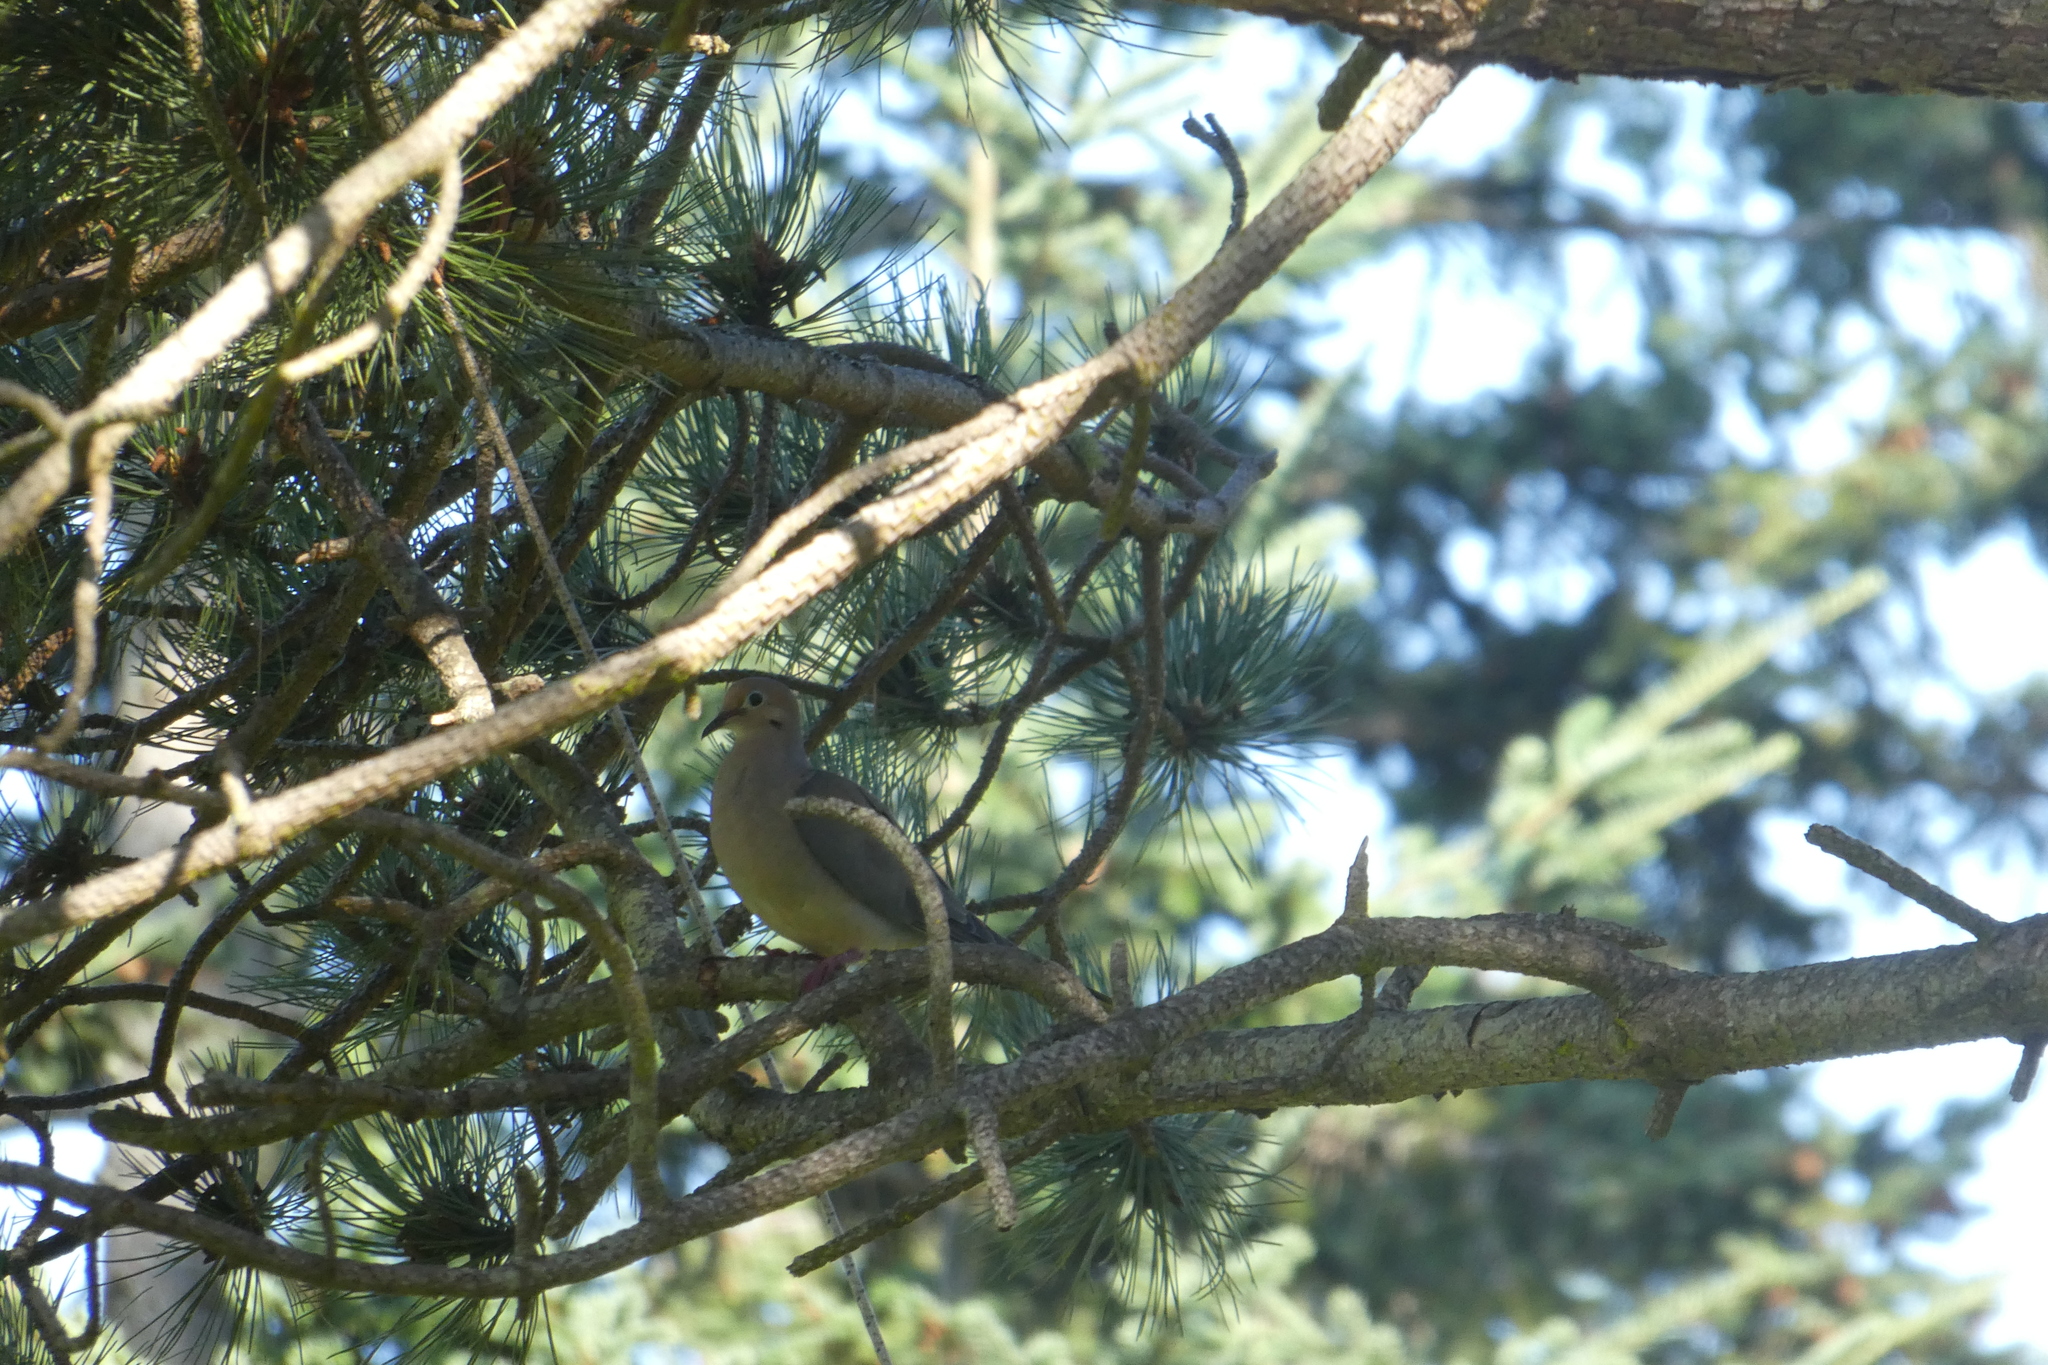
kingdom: Animalia
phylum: Chordata
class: Aves
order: Columbiformes
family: Columbidae
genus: Zenaida
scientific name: Zenaida macroura
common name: Mourning dove
